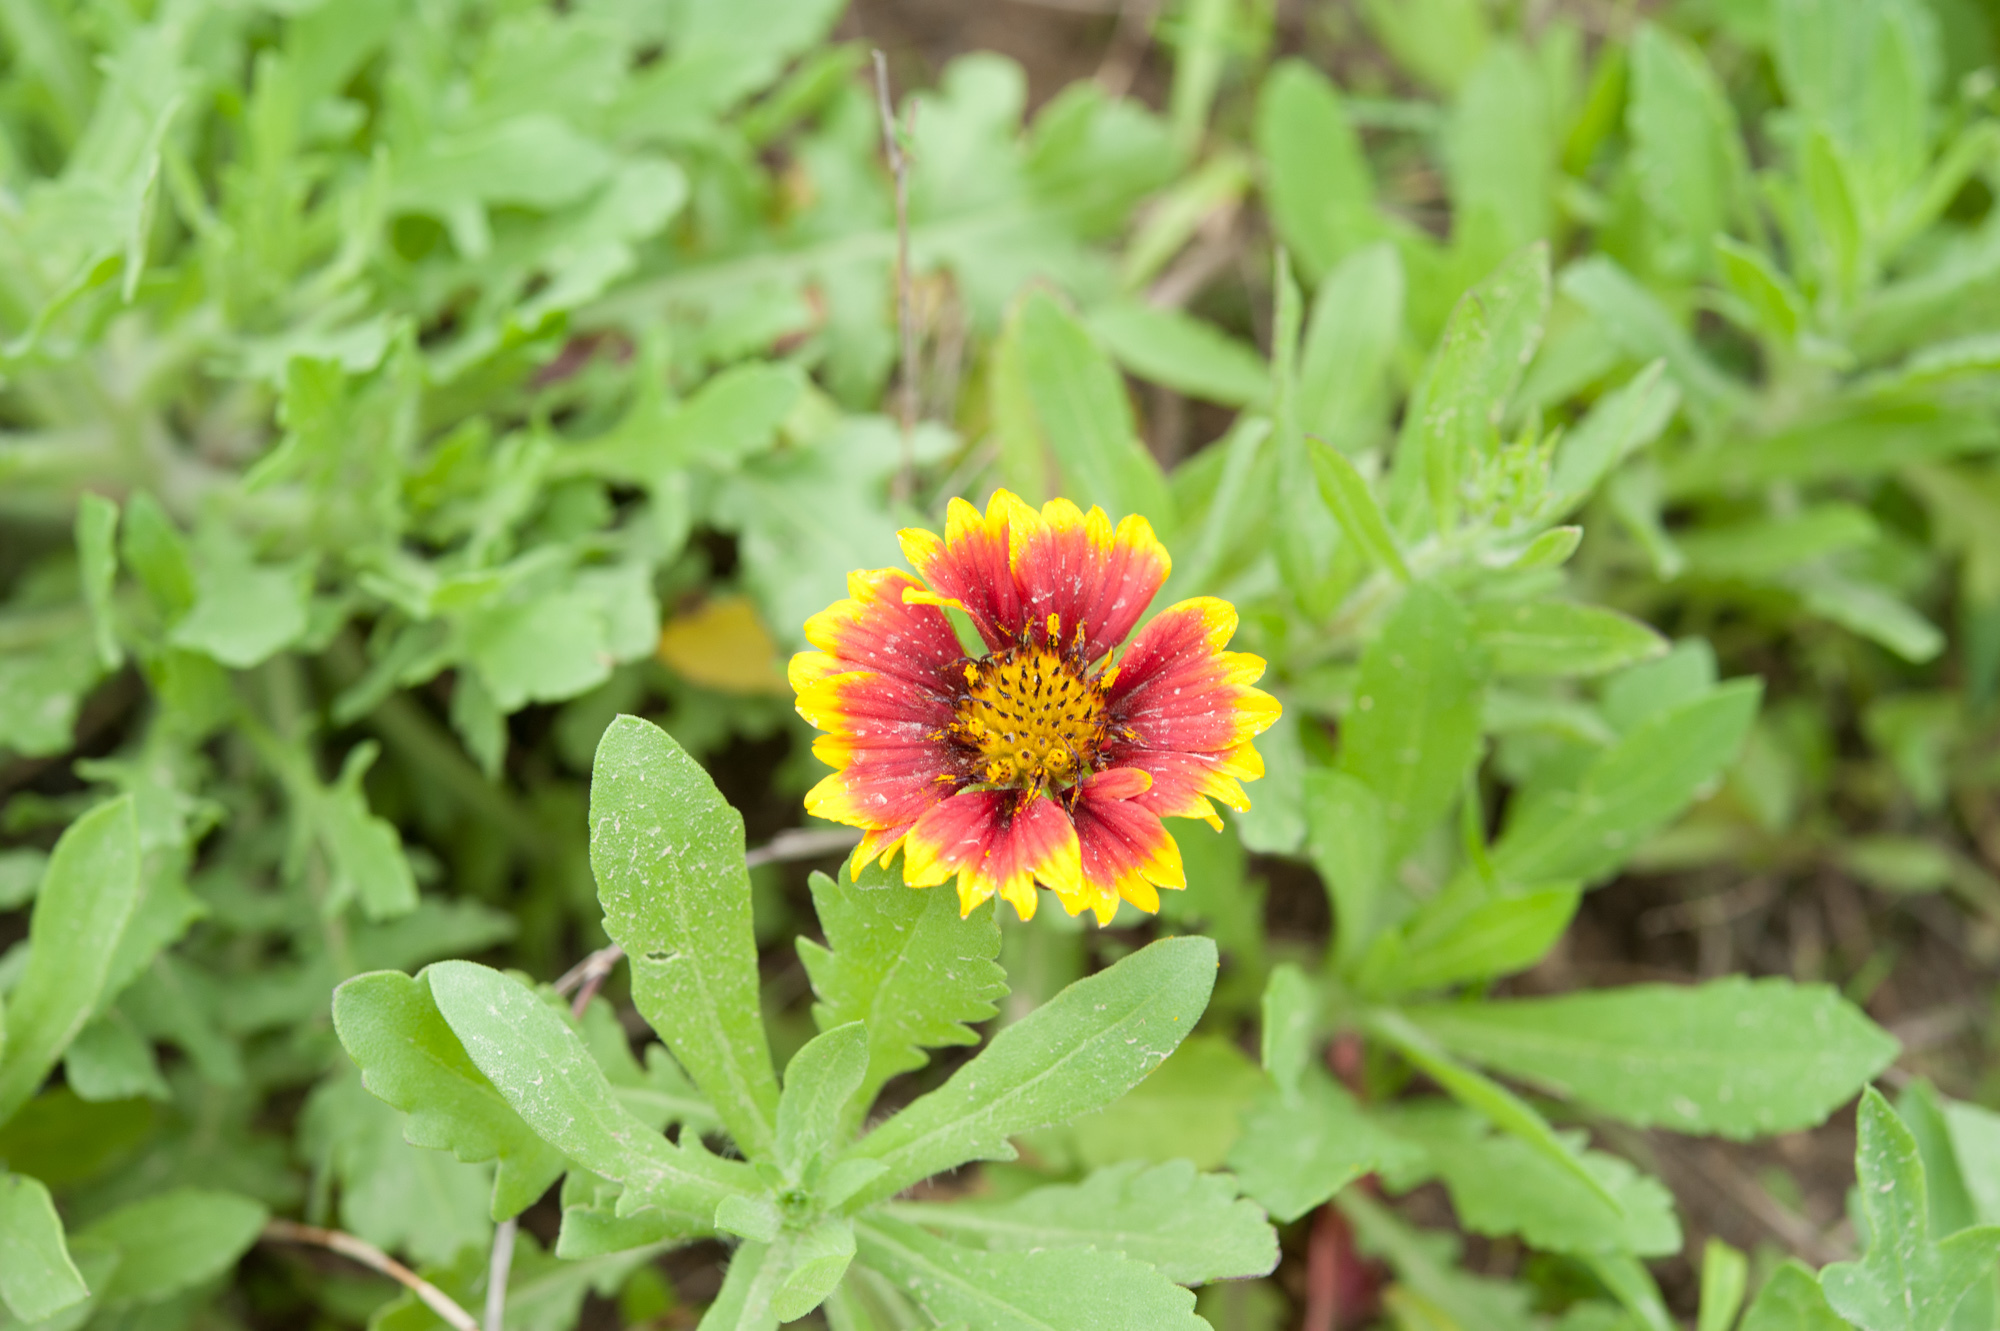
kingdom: Plantae
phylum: Tracheophyta
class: Magnoliopsida
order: Asterales
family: Asteraceae
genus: Gaillardia
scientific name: Gaillardia pulchella
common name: Firewheel
